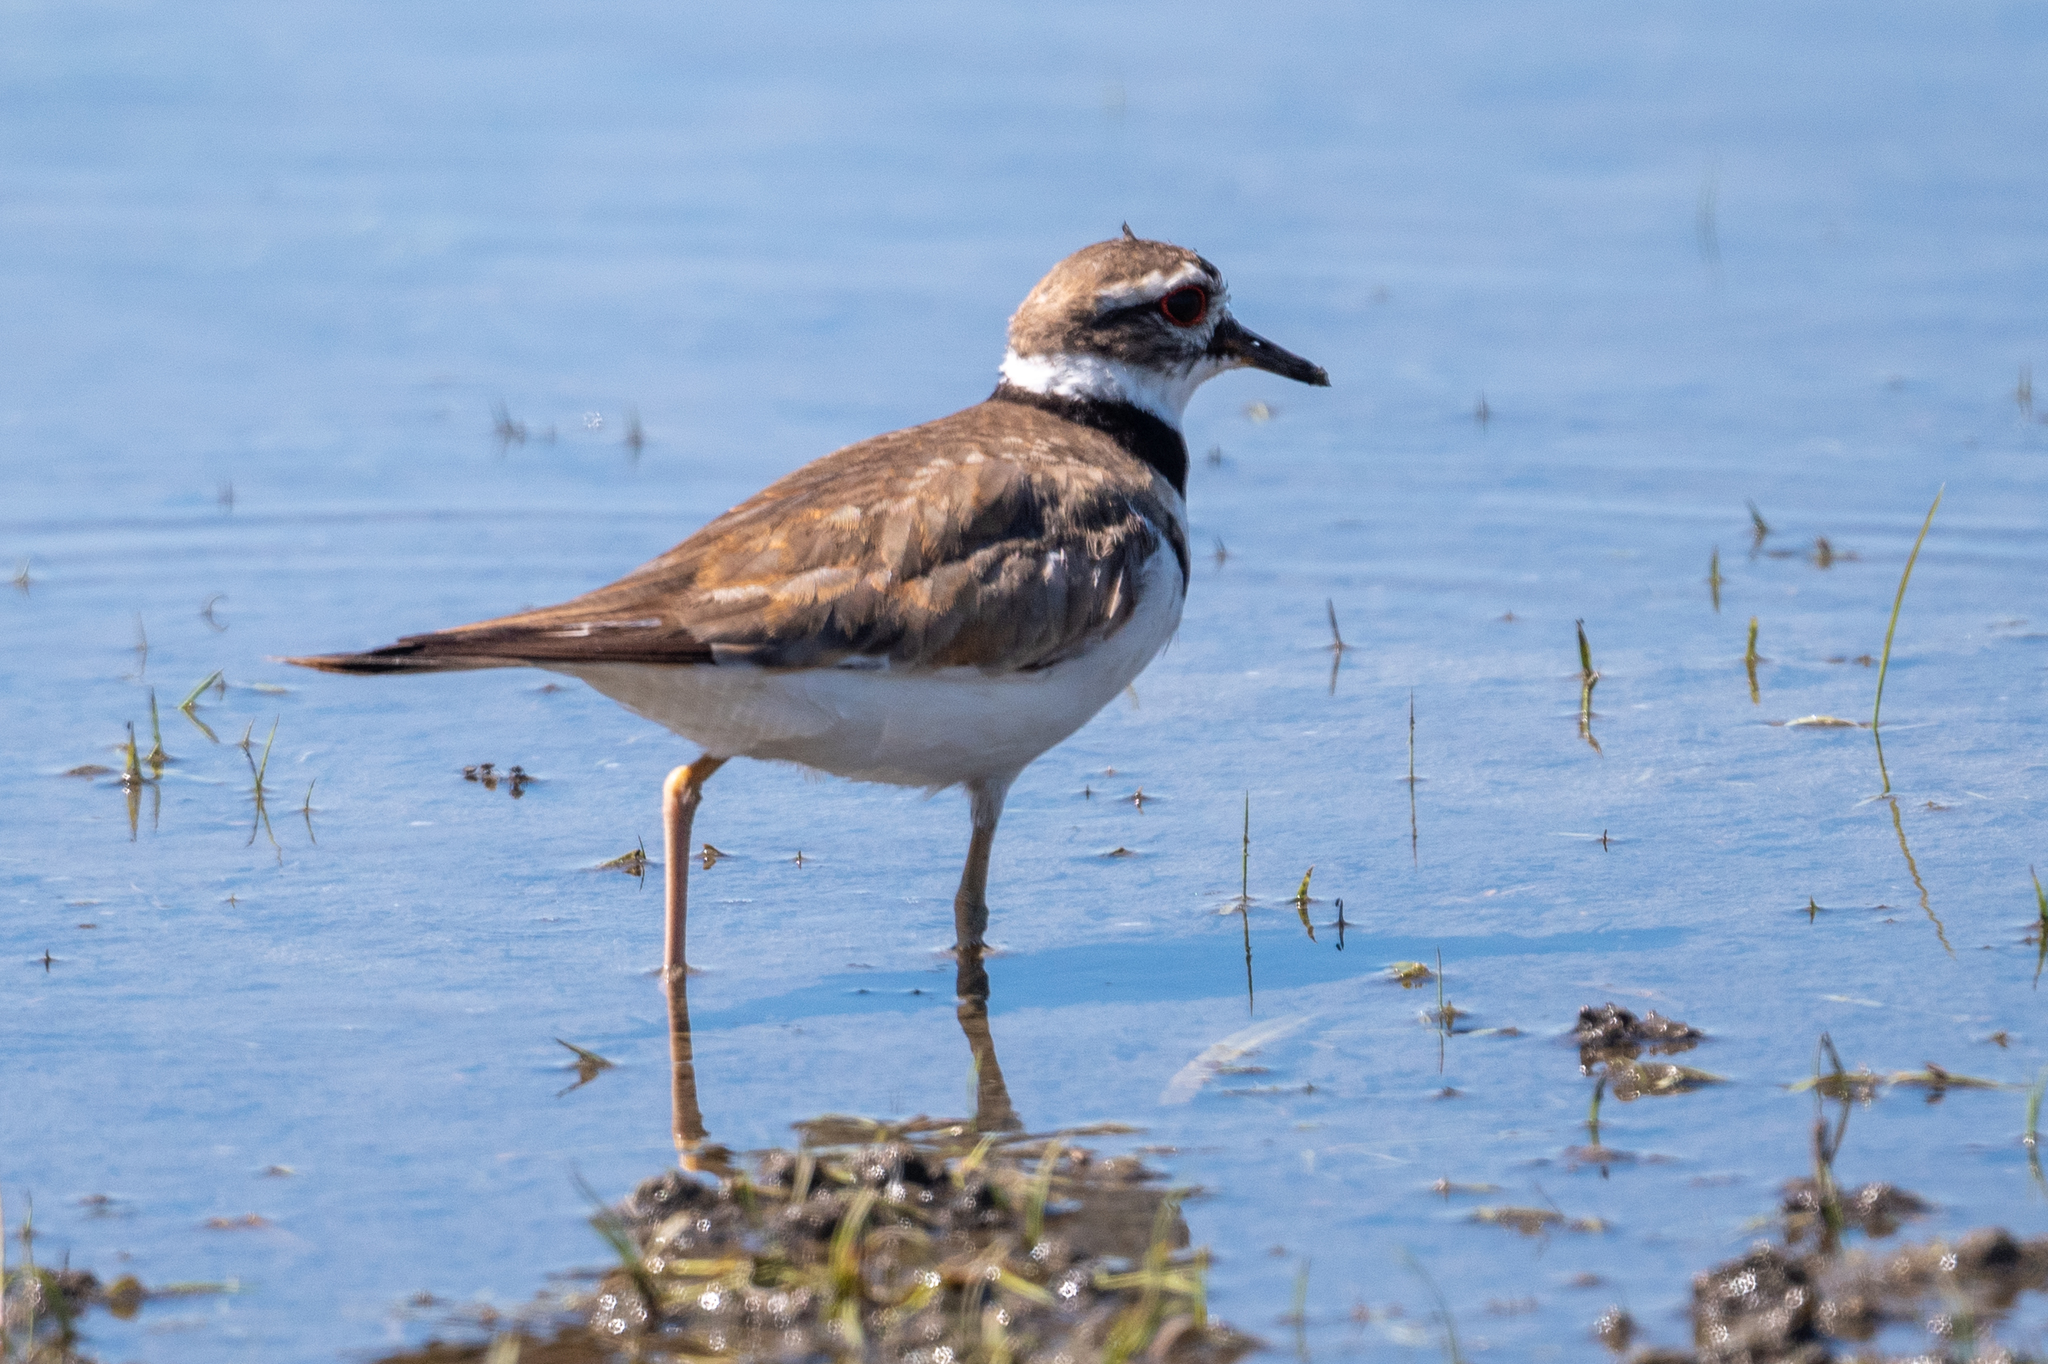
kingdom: Animalia
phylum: Chordata
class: Aves
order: Charadriiformes
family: Charadriidae
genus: Charadrius
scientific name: Charadrius vociferus
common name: Killdeer
